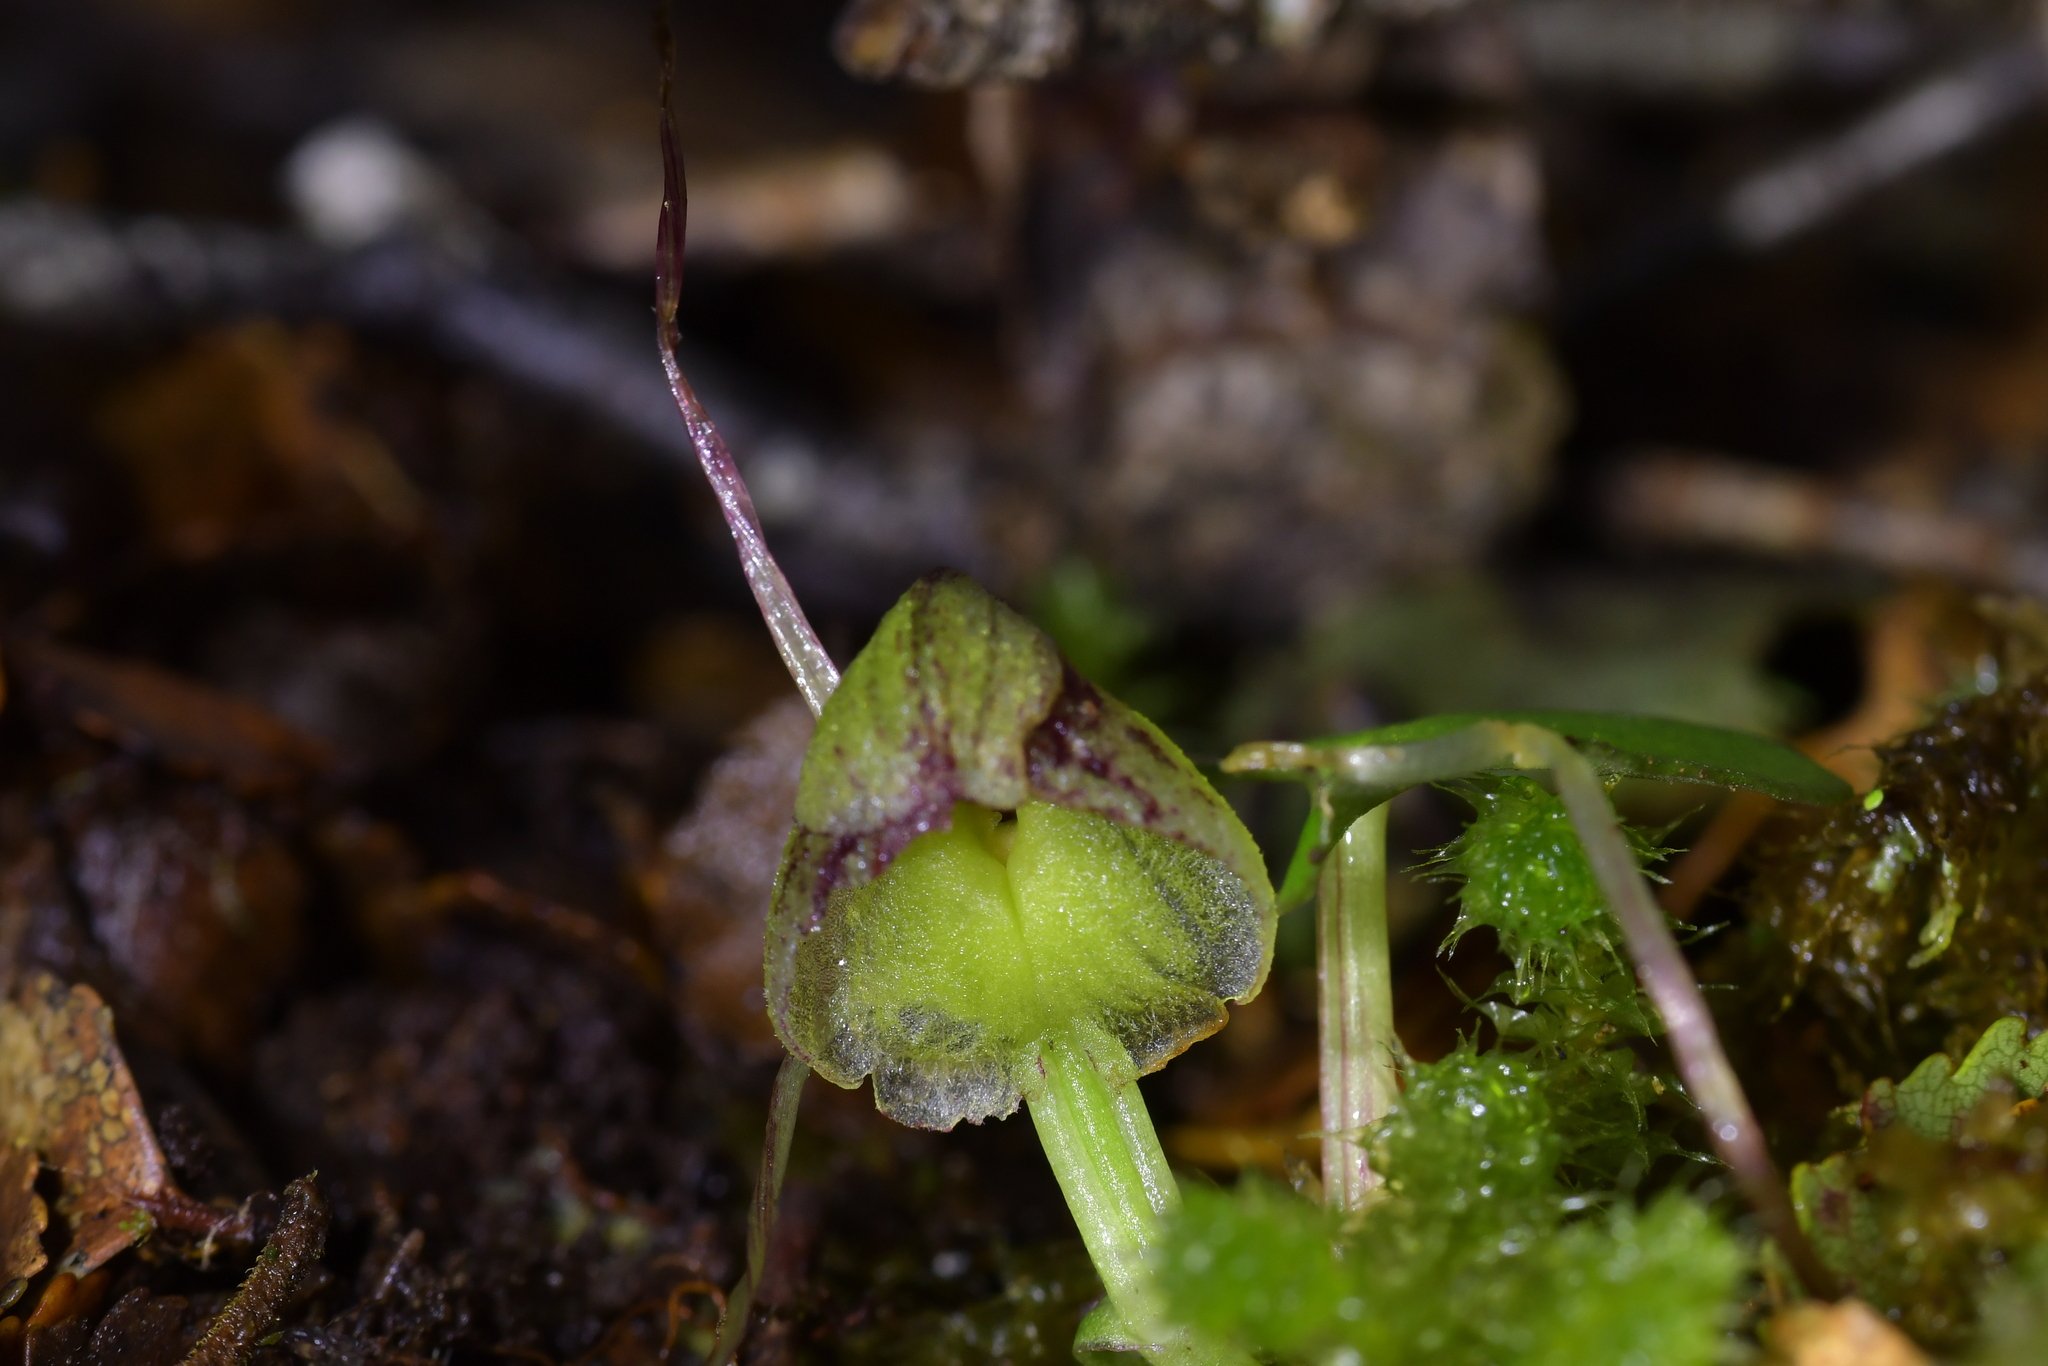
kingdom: Plantae
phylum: Tracheophyta
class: Liliopsida
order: Asparagales
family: Orchidaceae
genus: Corybas
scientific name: Corybas walliae
